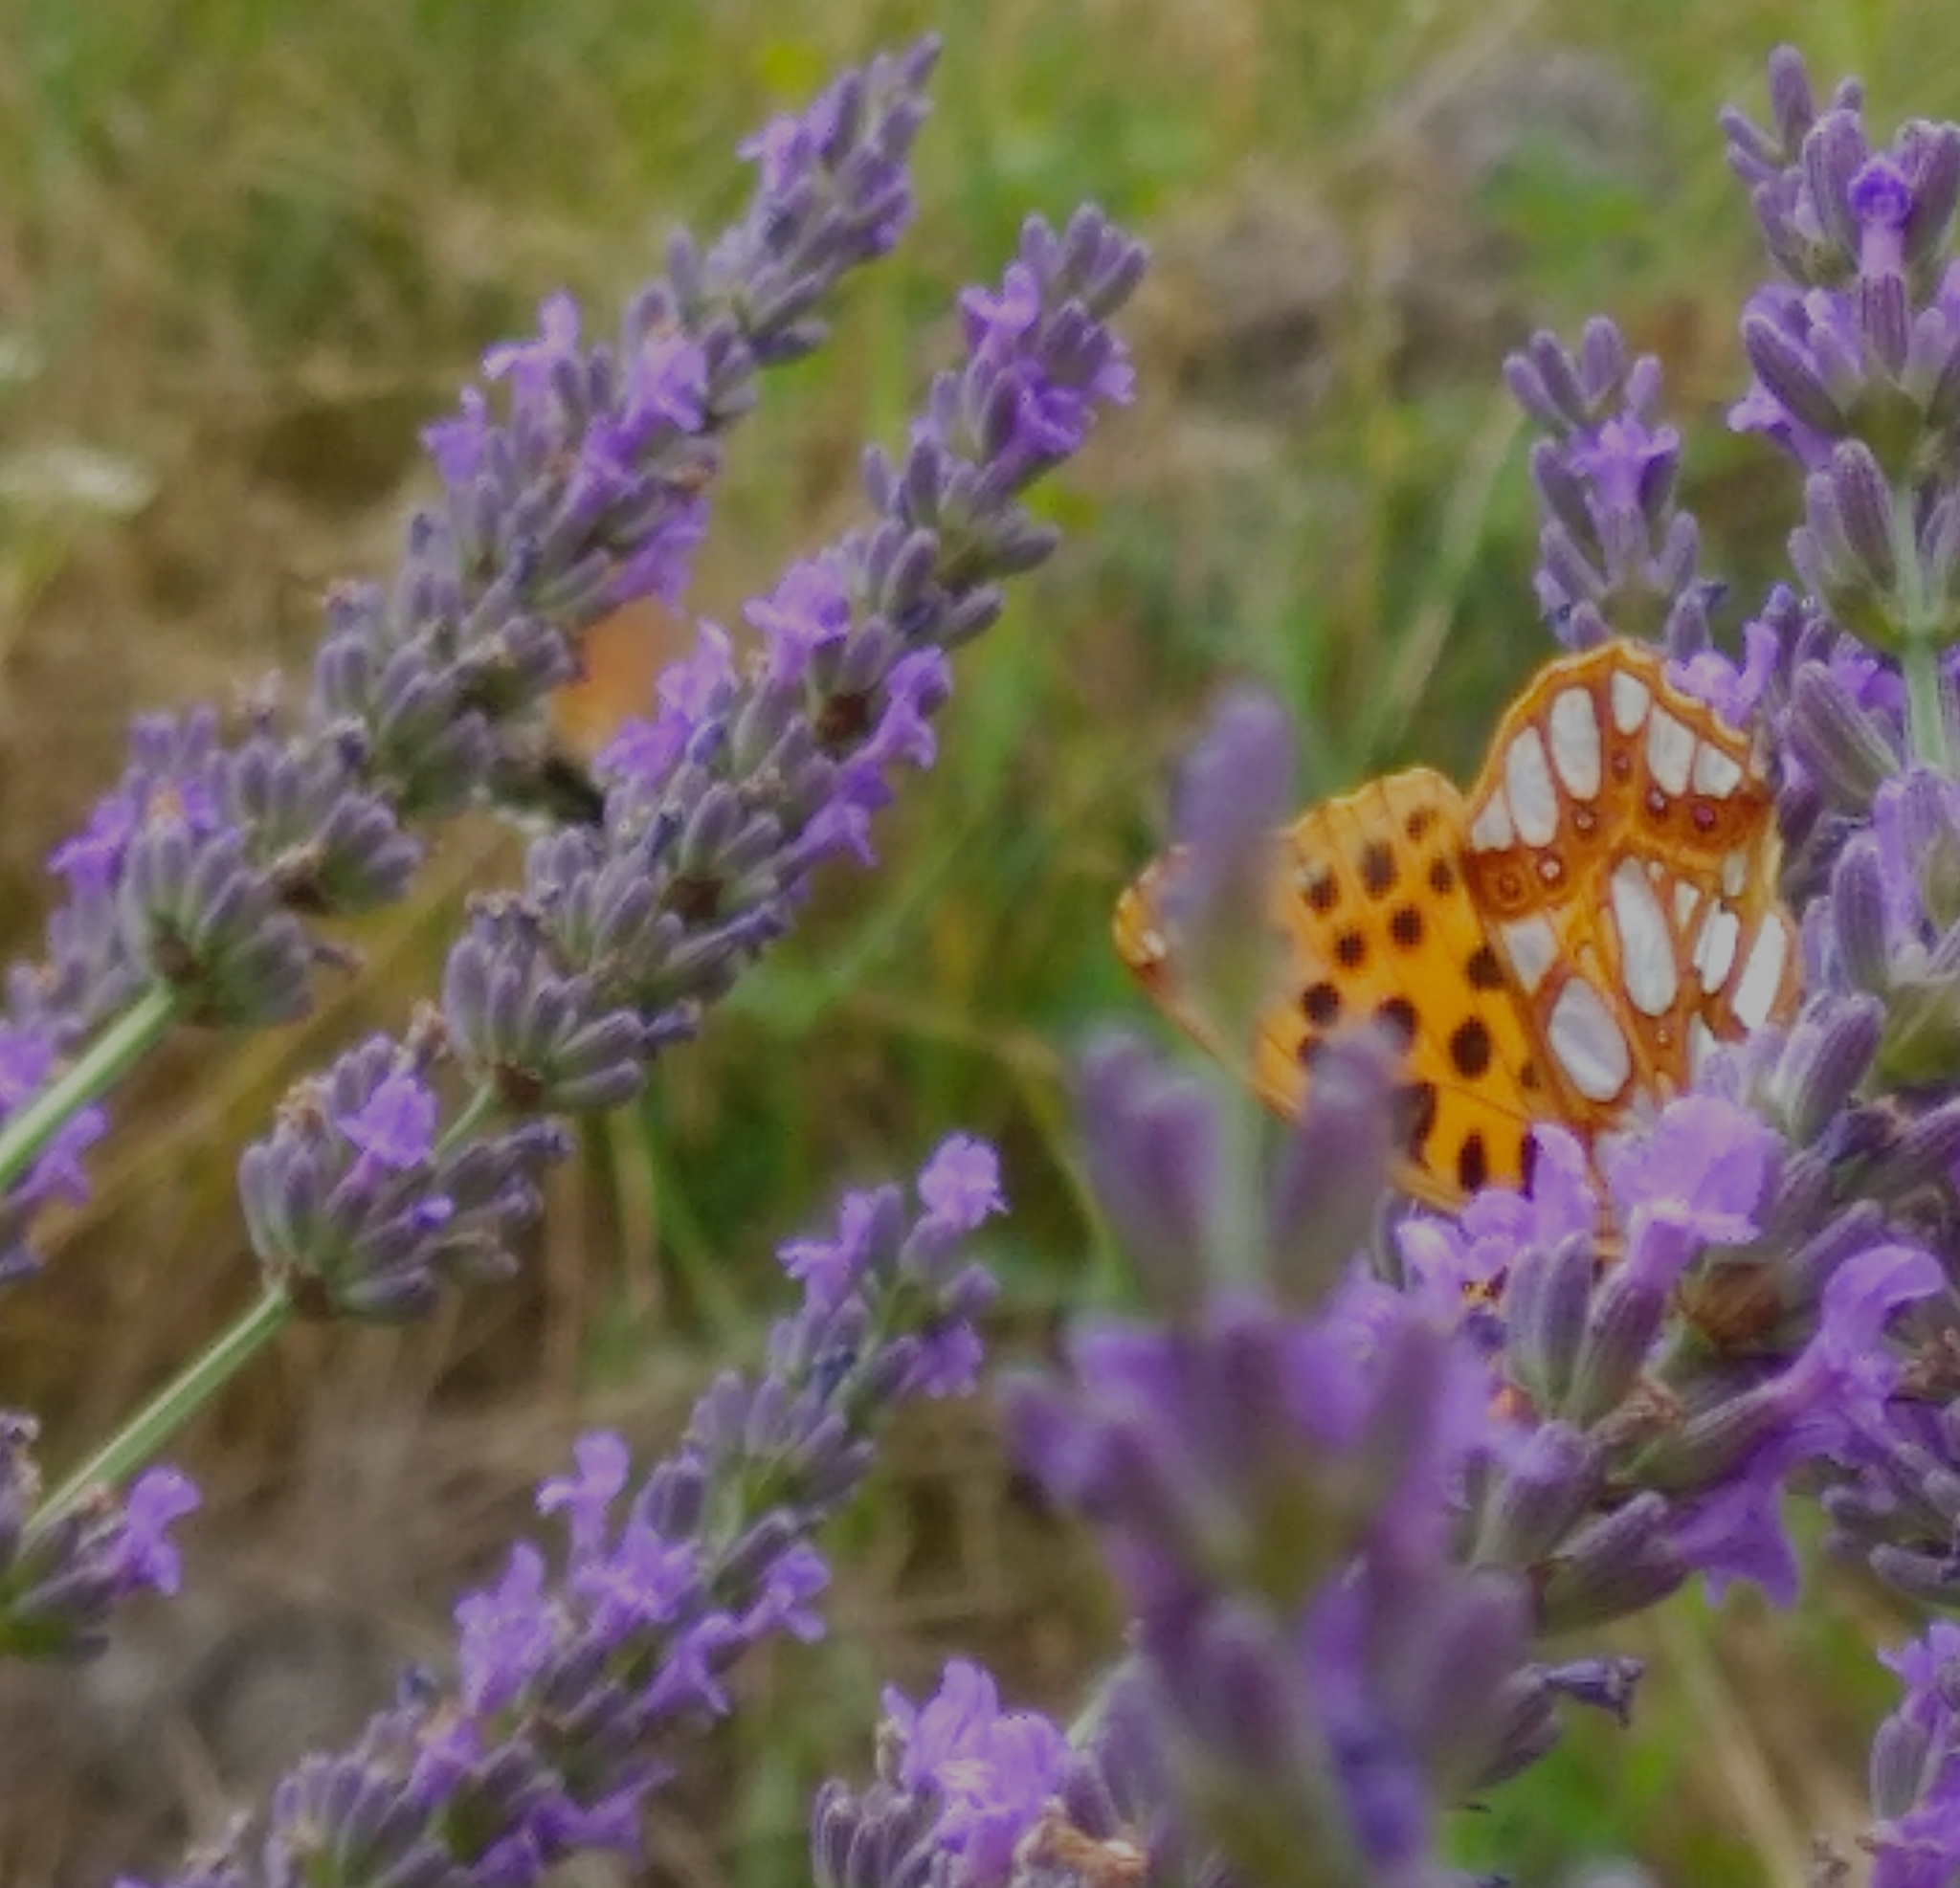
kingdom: Animalia
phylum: Arthropoda
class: Insecta
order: Lepidoptera
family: Nymphalidae
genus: Issoria
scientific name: Issoria lathonia
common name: Queen of spain fritillary
